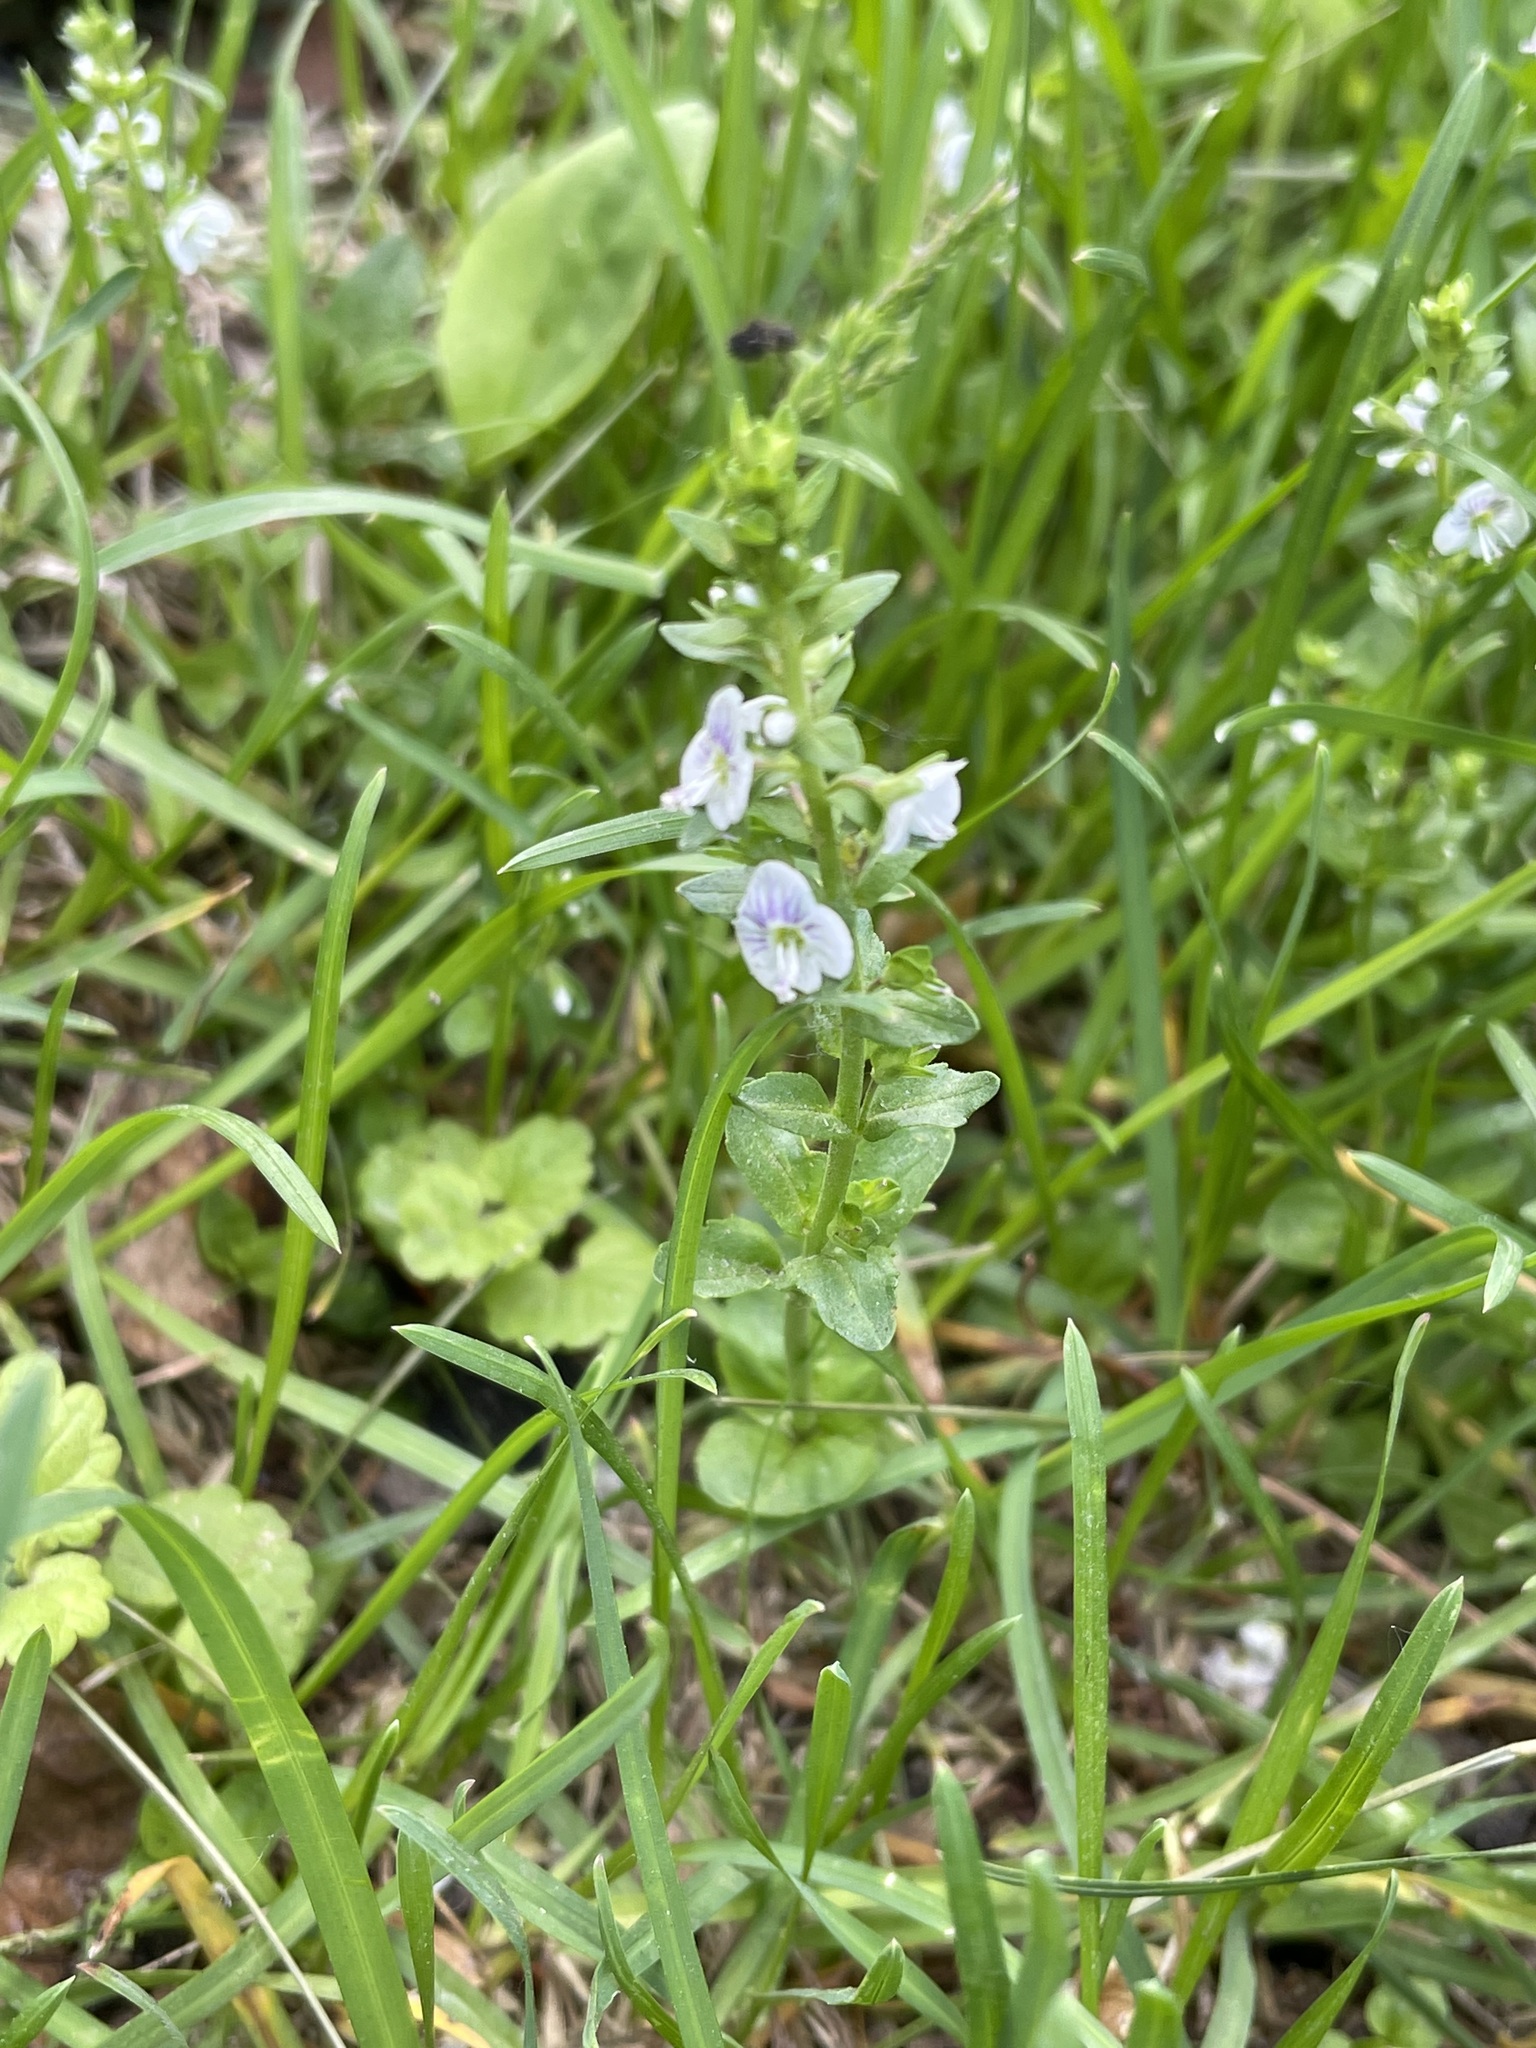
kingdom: Plantae
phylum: Tracheophyta
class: Magnoliopsida
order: Lamiales
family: Plantaginaceae
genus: Veronica
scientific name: Veronica serpyllifolia
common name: Thyme-leaved speedwell
